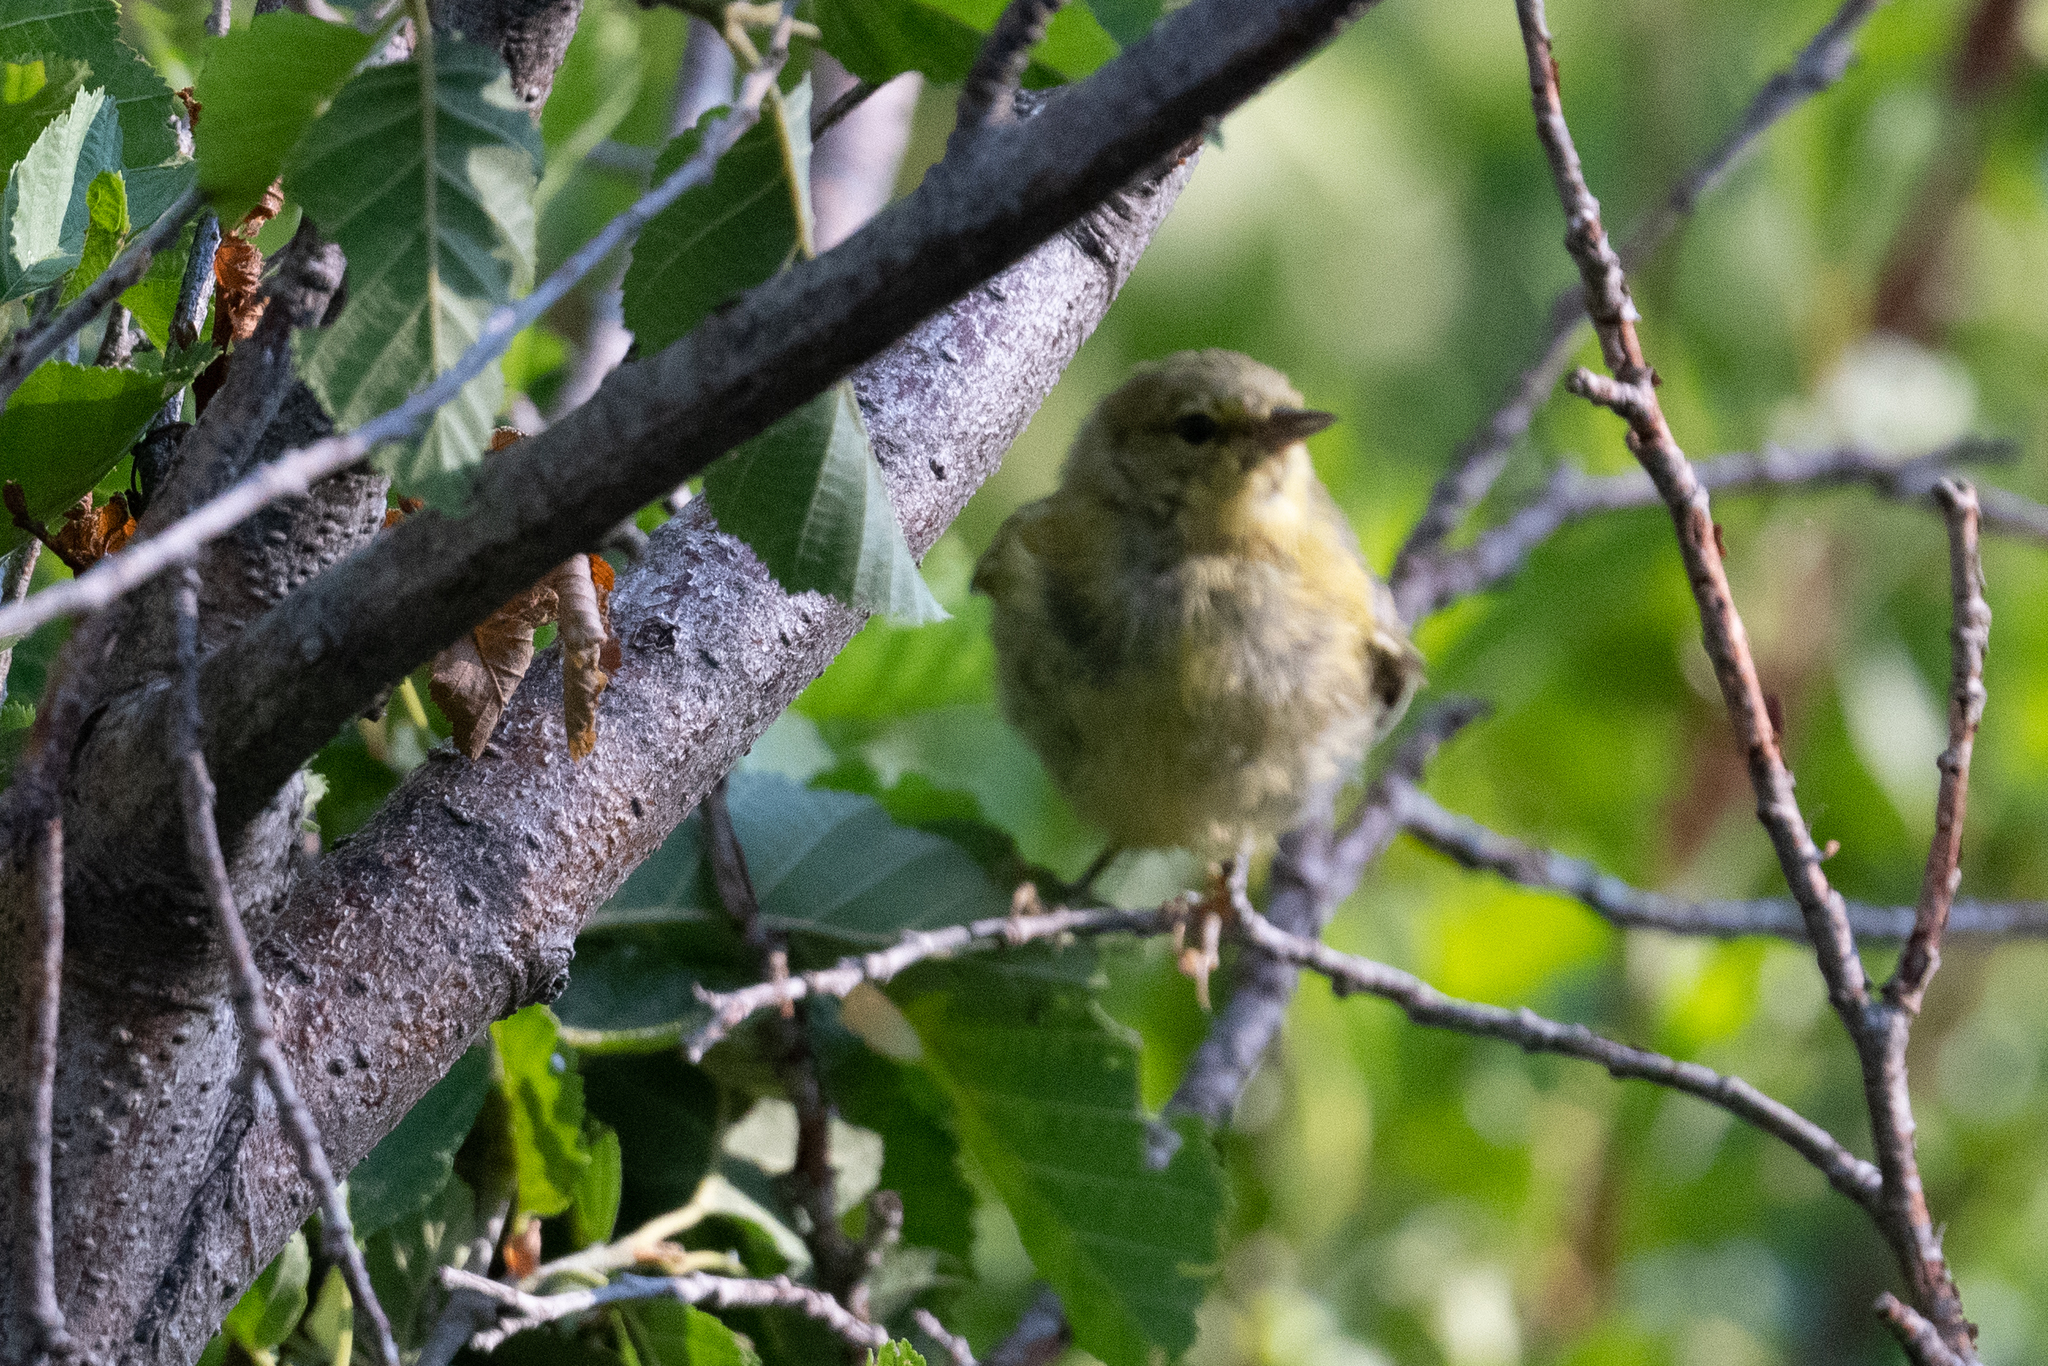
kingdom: Animalia
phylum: Chordata
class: Aves
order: Passeriformes
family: Parulidae
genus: Leiothlypis
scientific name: Leiothlypis celata
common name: Orange-crowned warbler
